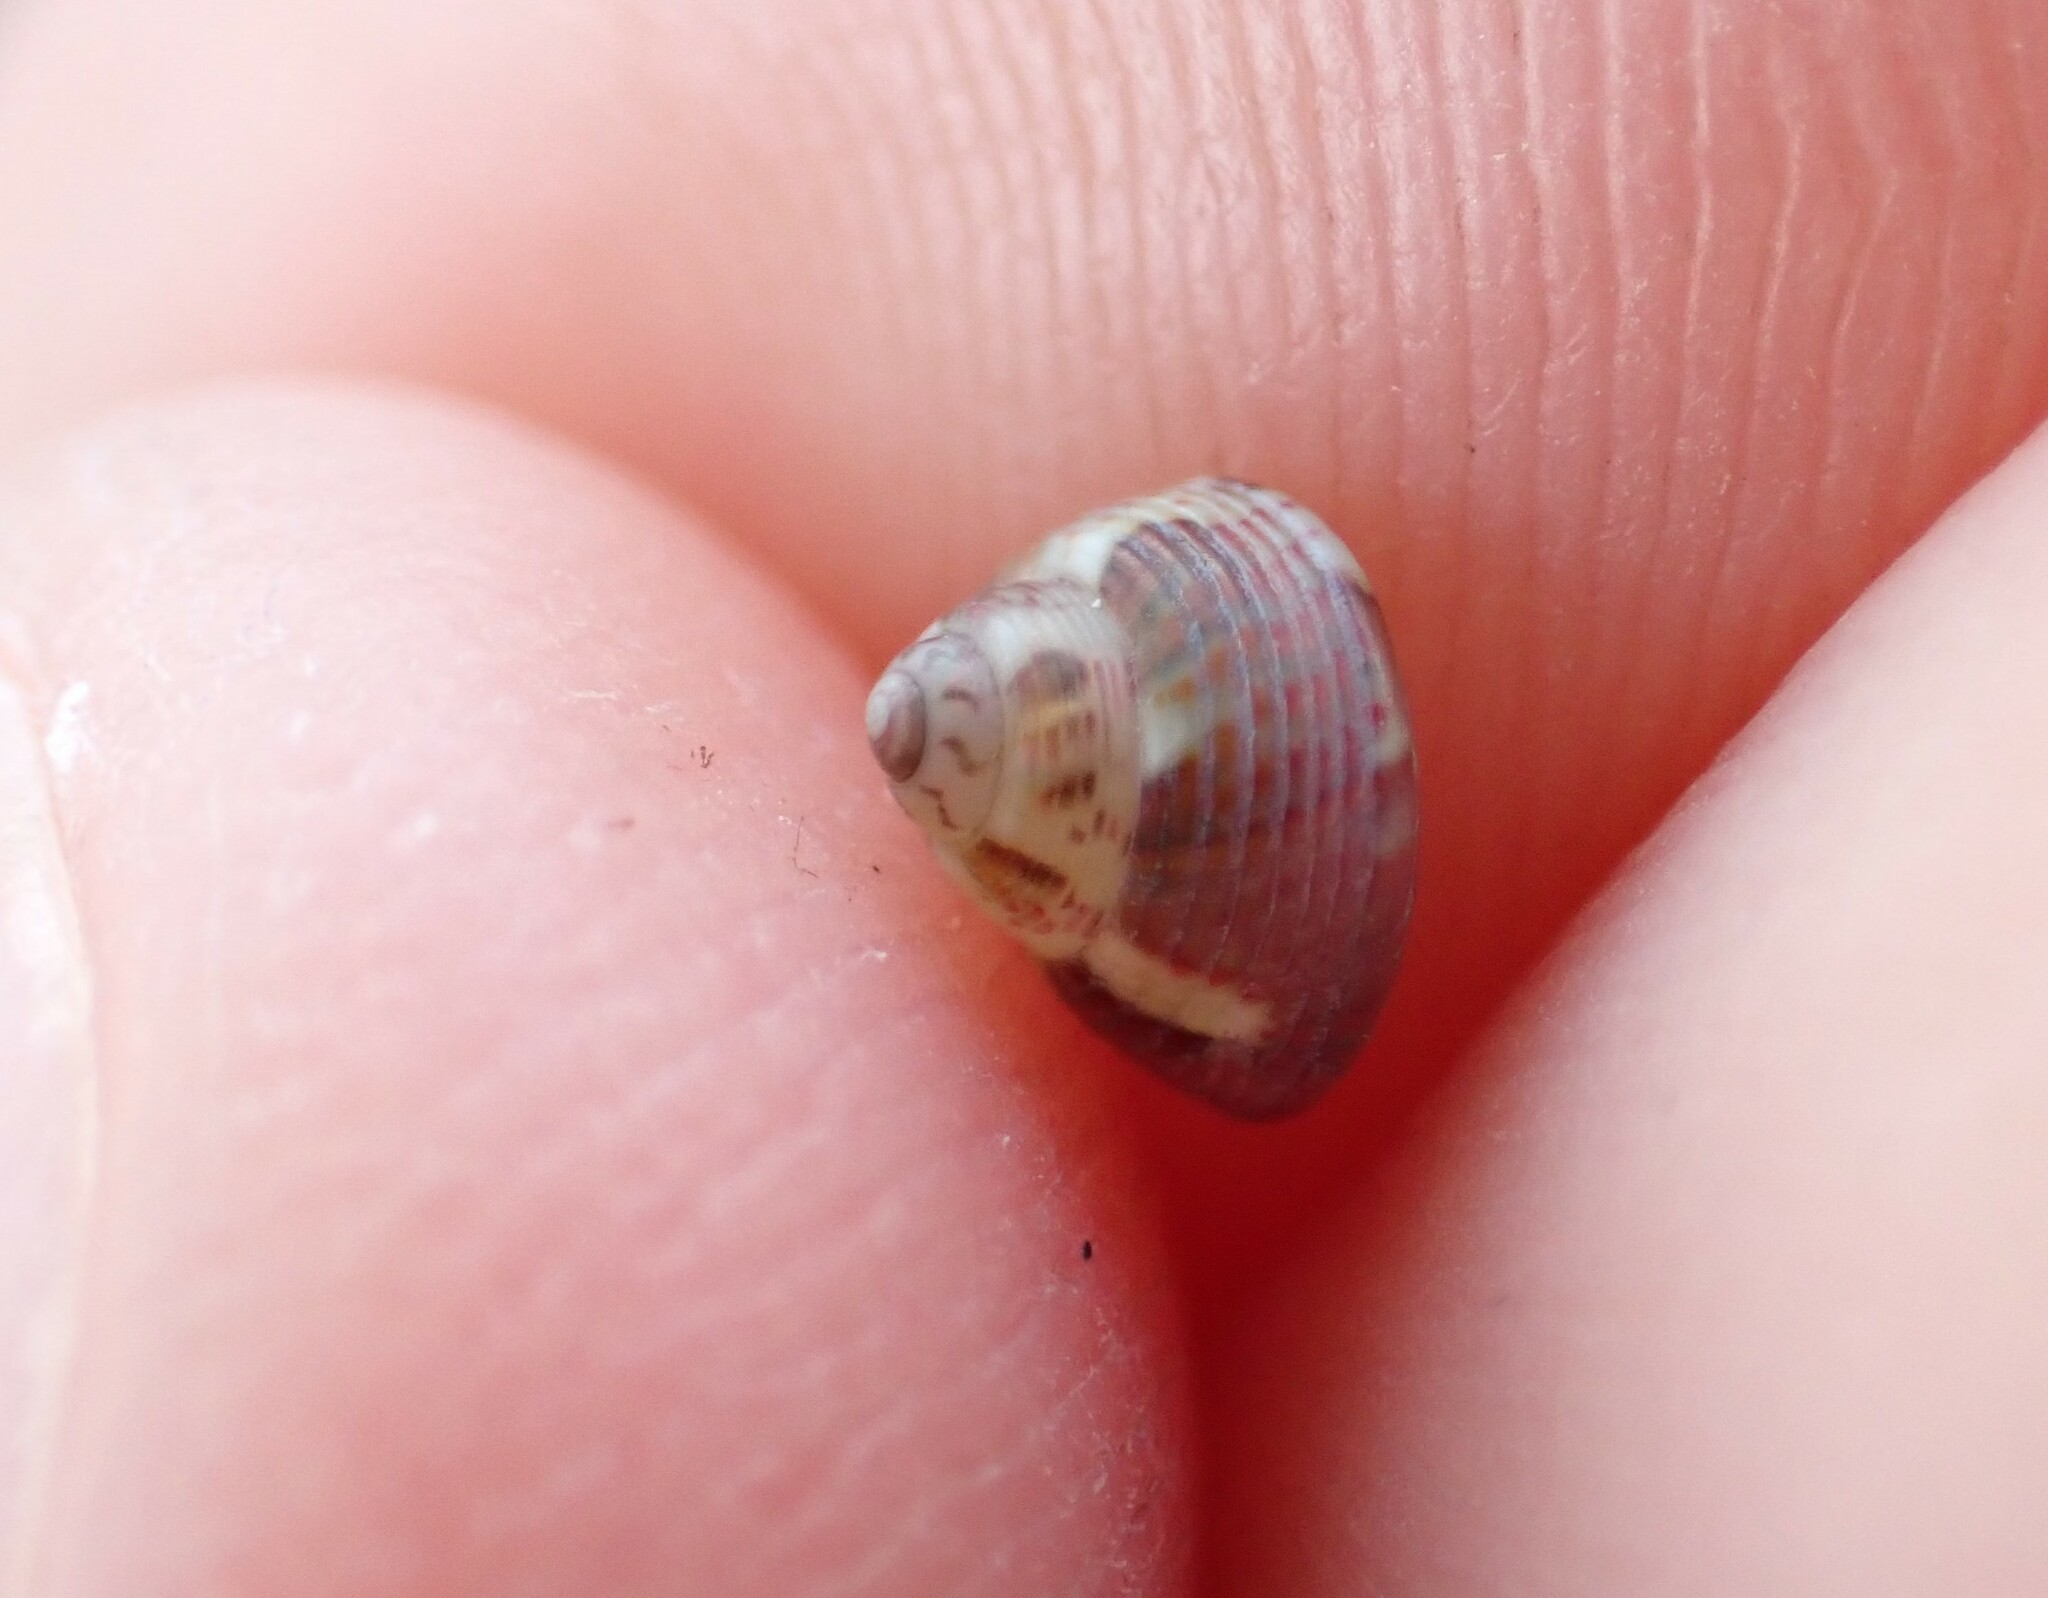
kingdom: Animalia
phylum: Mollusca
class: Gastropoda
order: Trochida
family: Trochidae
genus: Micrelenchus
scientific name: Micrelenchus sanguineus
